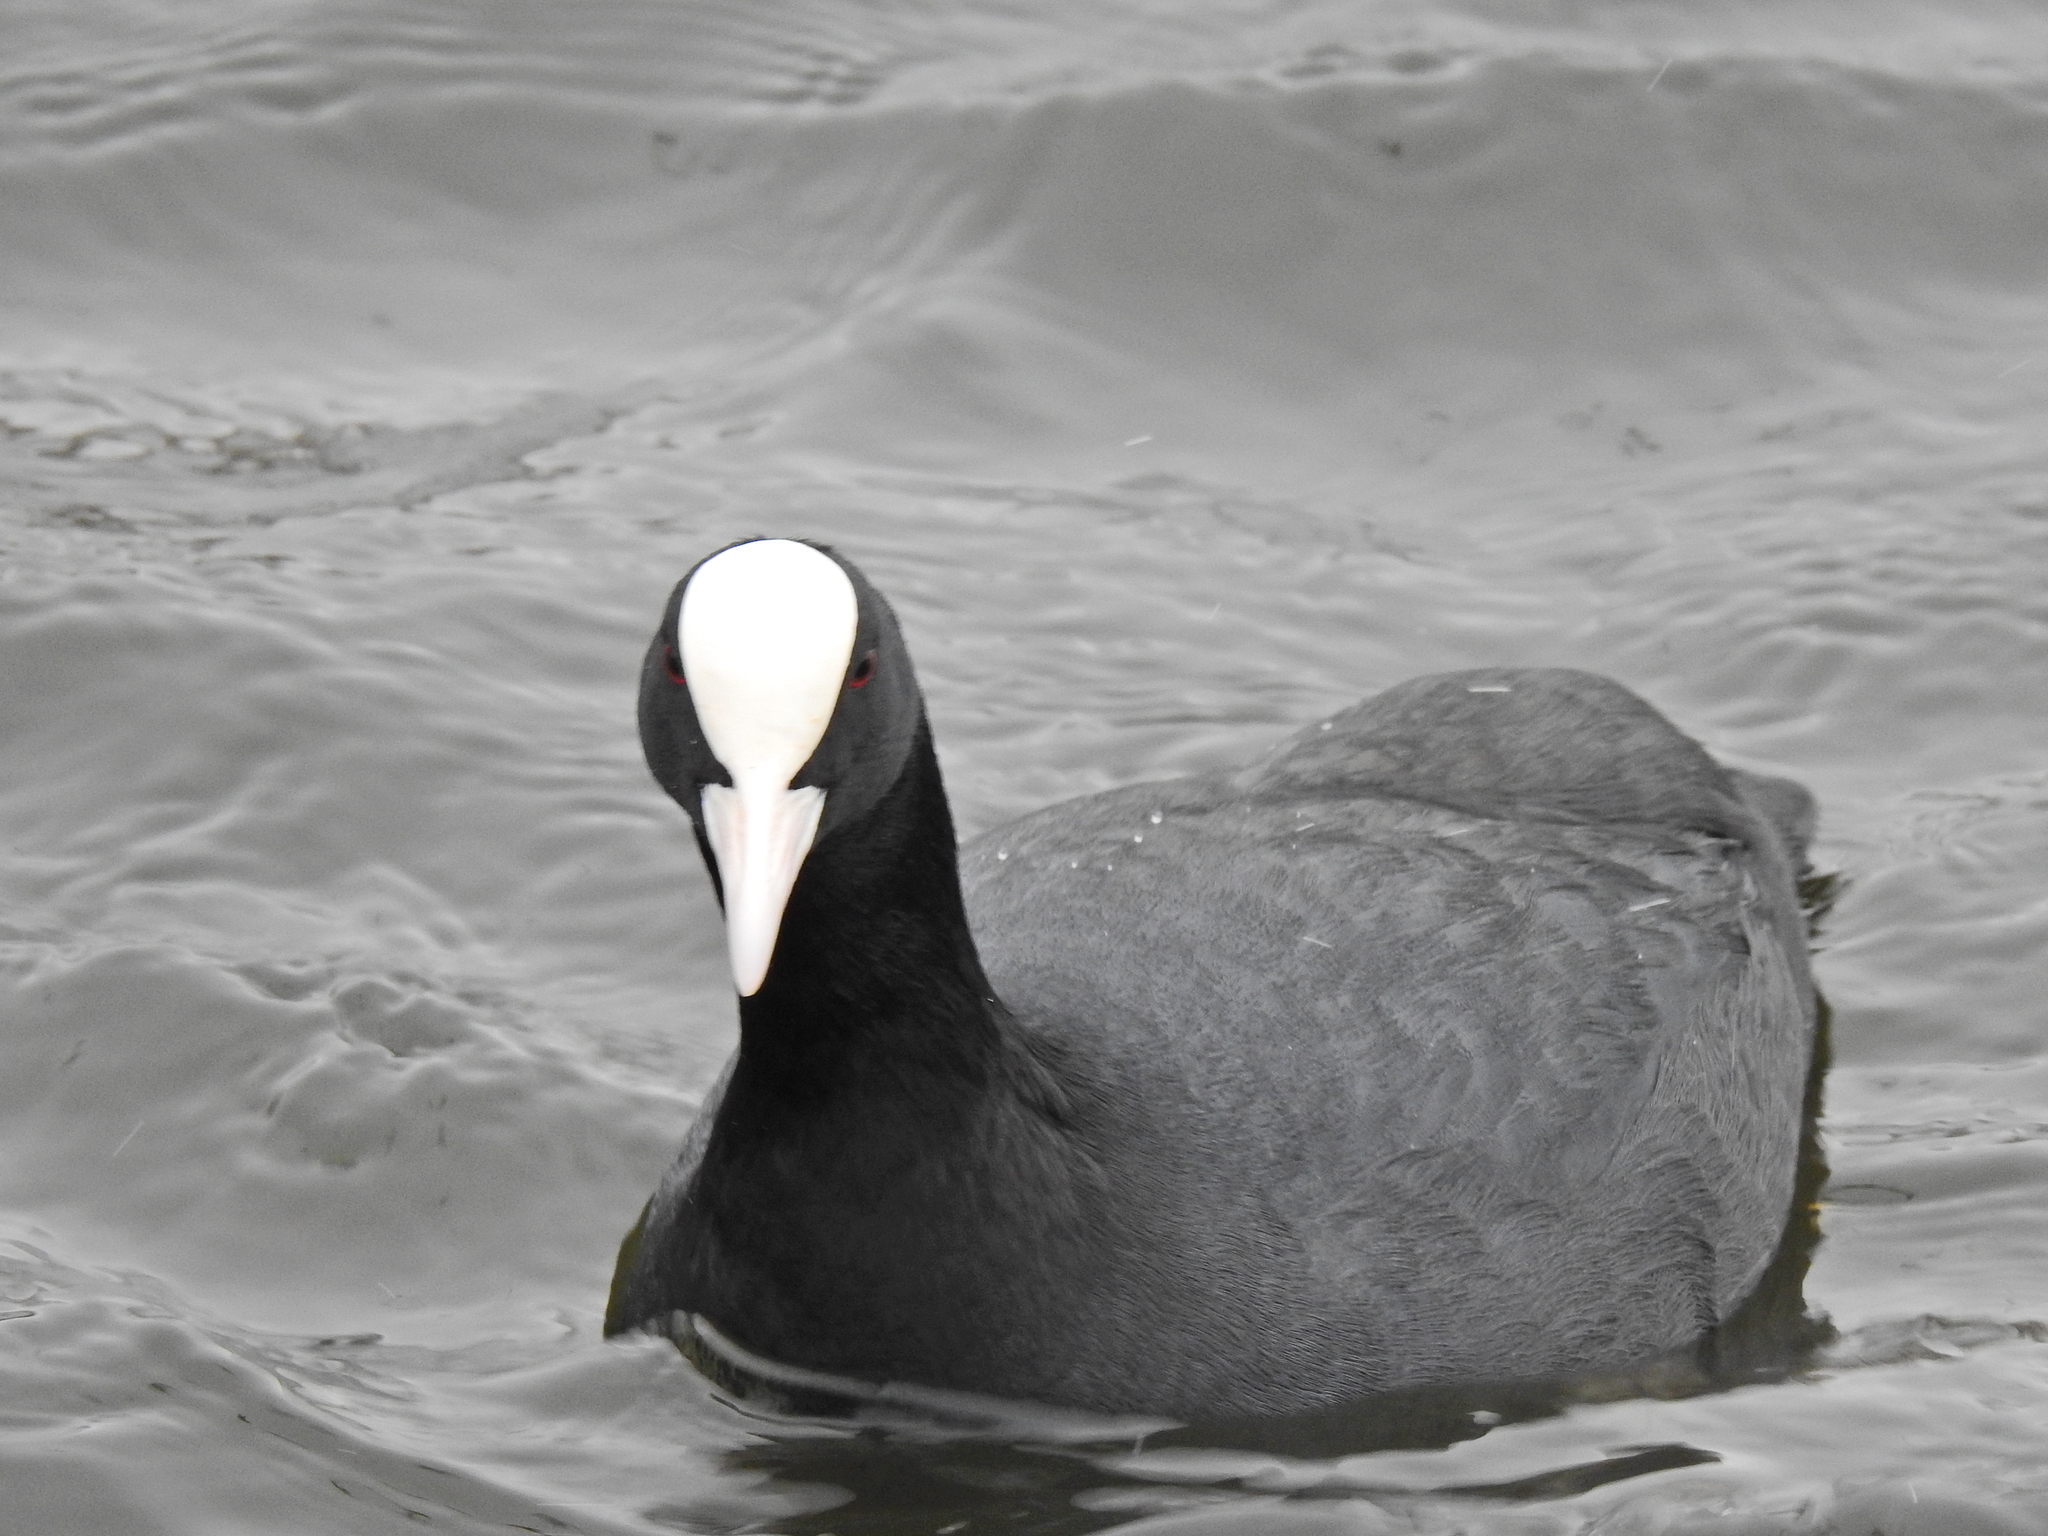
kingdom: Animalia
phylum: Chordata
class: Aves
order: Gruiformes
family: Rallidae
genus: Fulica
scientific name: Fulica atra
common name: Eurasian coot
